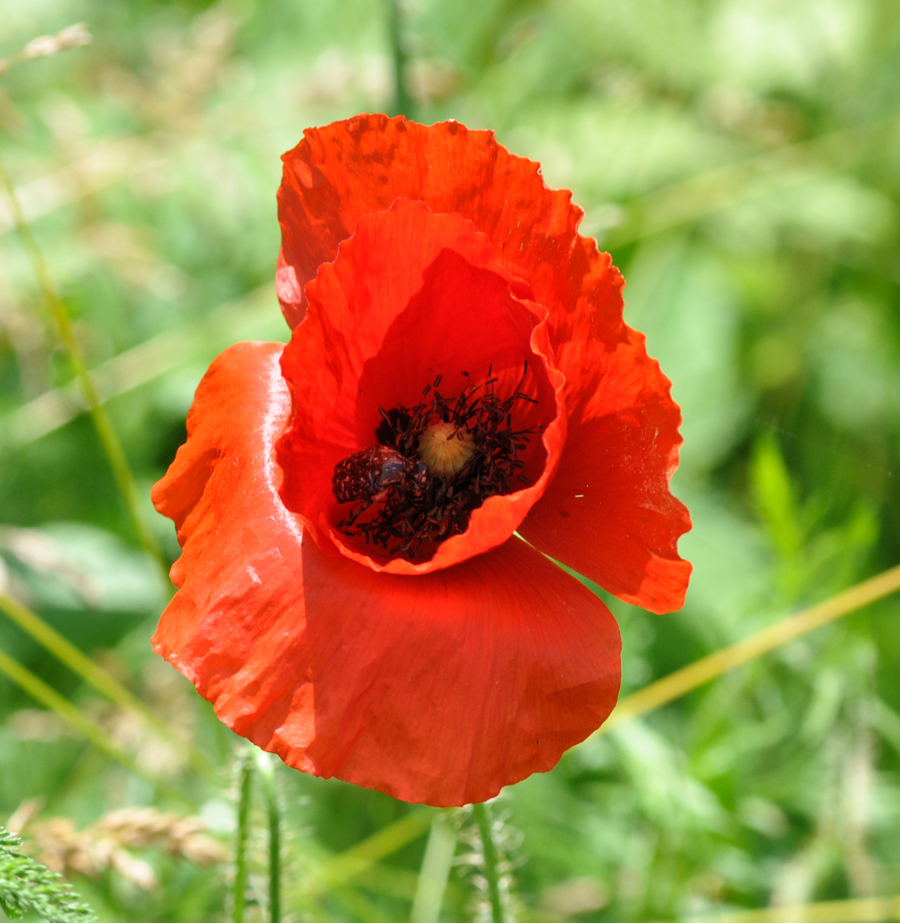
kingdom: Plantae
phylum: Tracheophyta
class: Magnoliopsida
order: Ranunculales
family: Papaveraceae
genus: Papaver
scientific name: Papaver rhoeas
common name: Corn poppy
